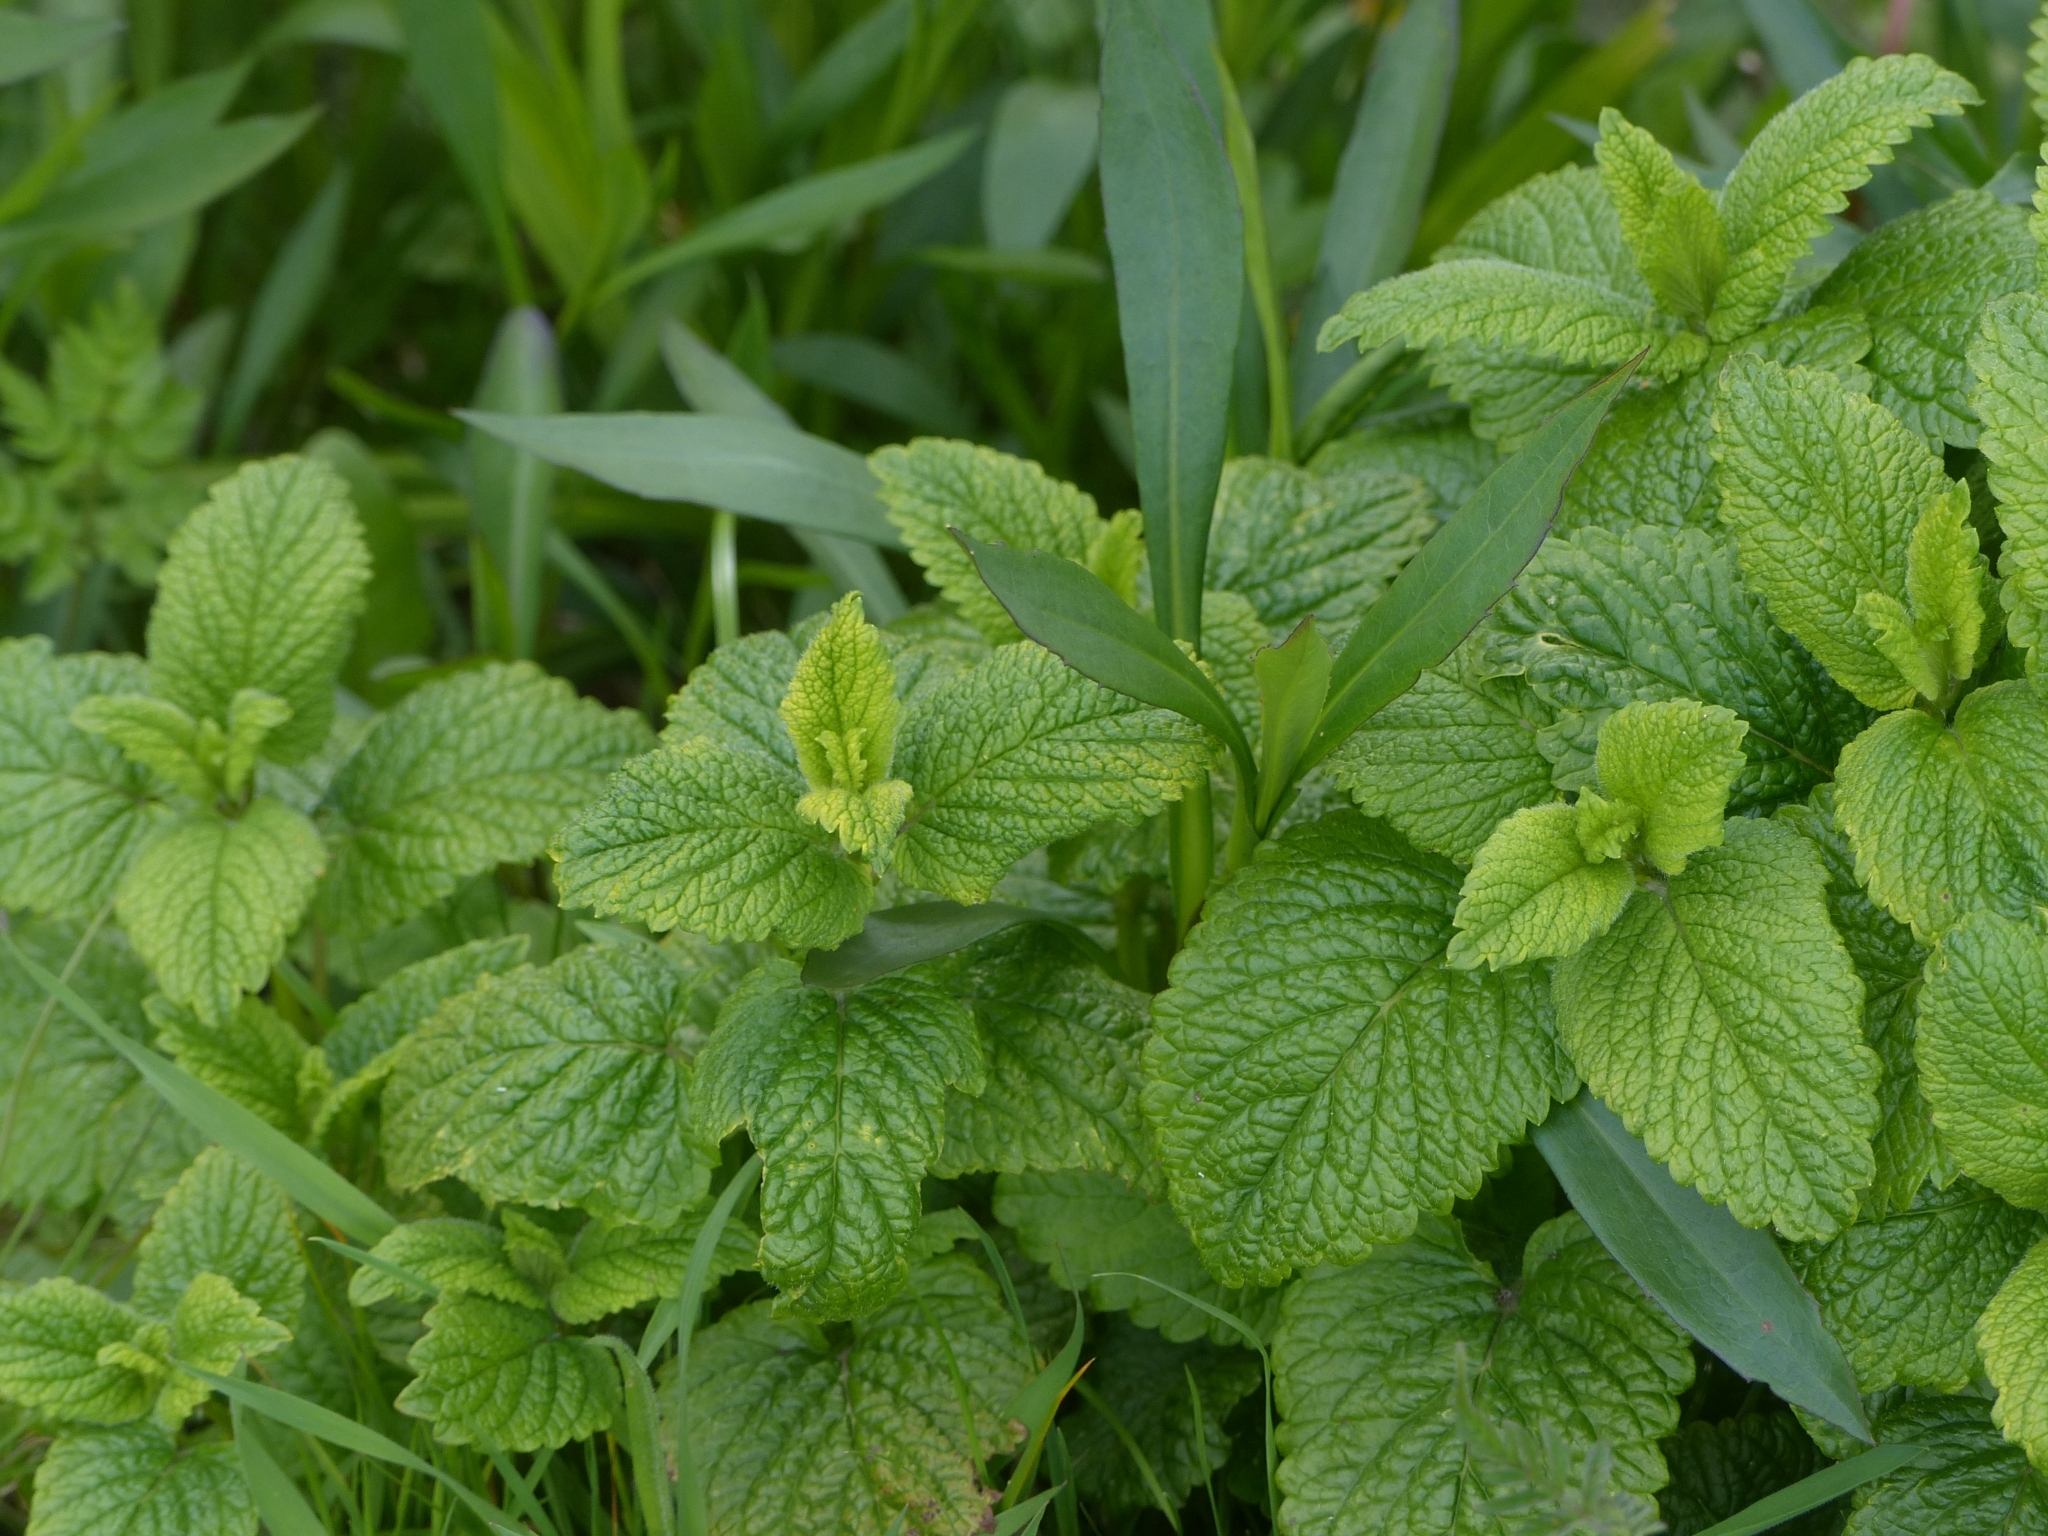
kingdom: Plantae
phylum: Tracheophyta
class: Magnoliopsida
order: Lamiales
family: Lamiaceae
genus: Melissa
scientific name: Melissa officinalis
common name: Balm
